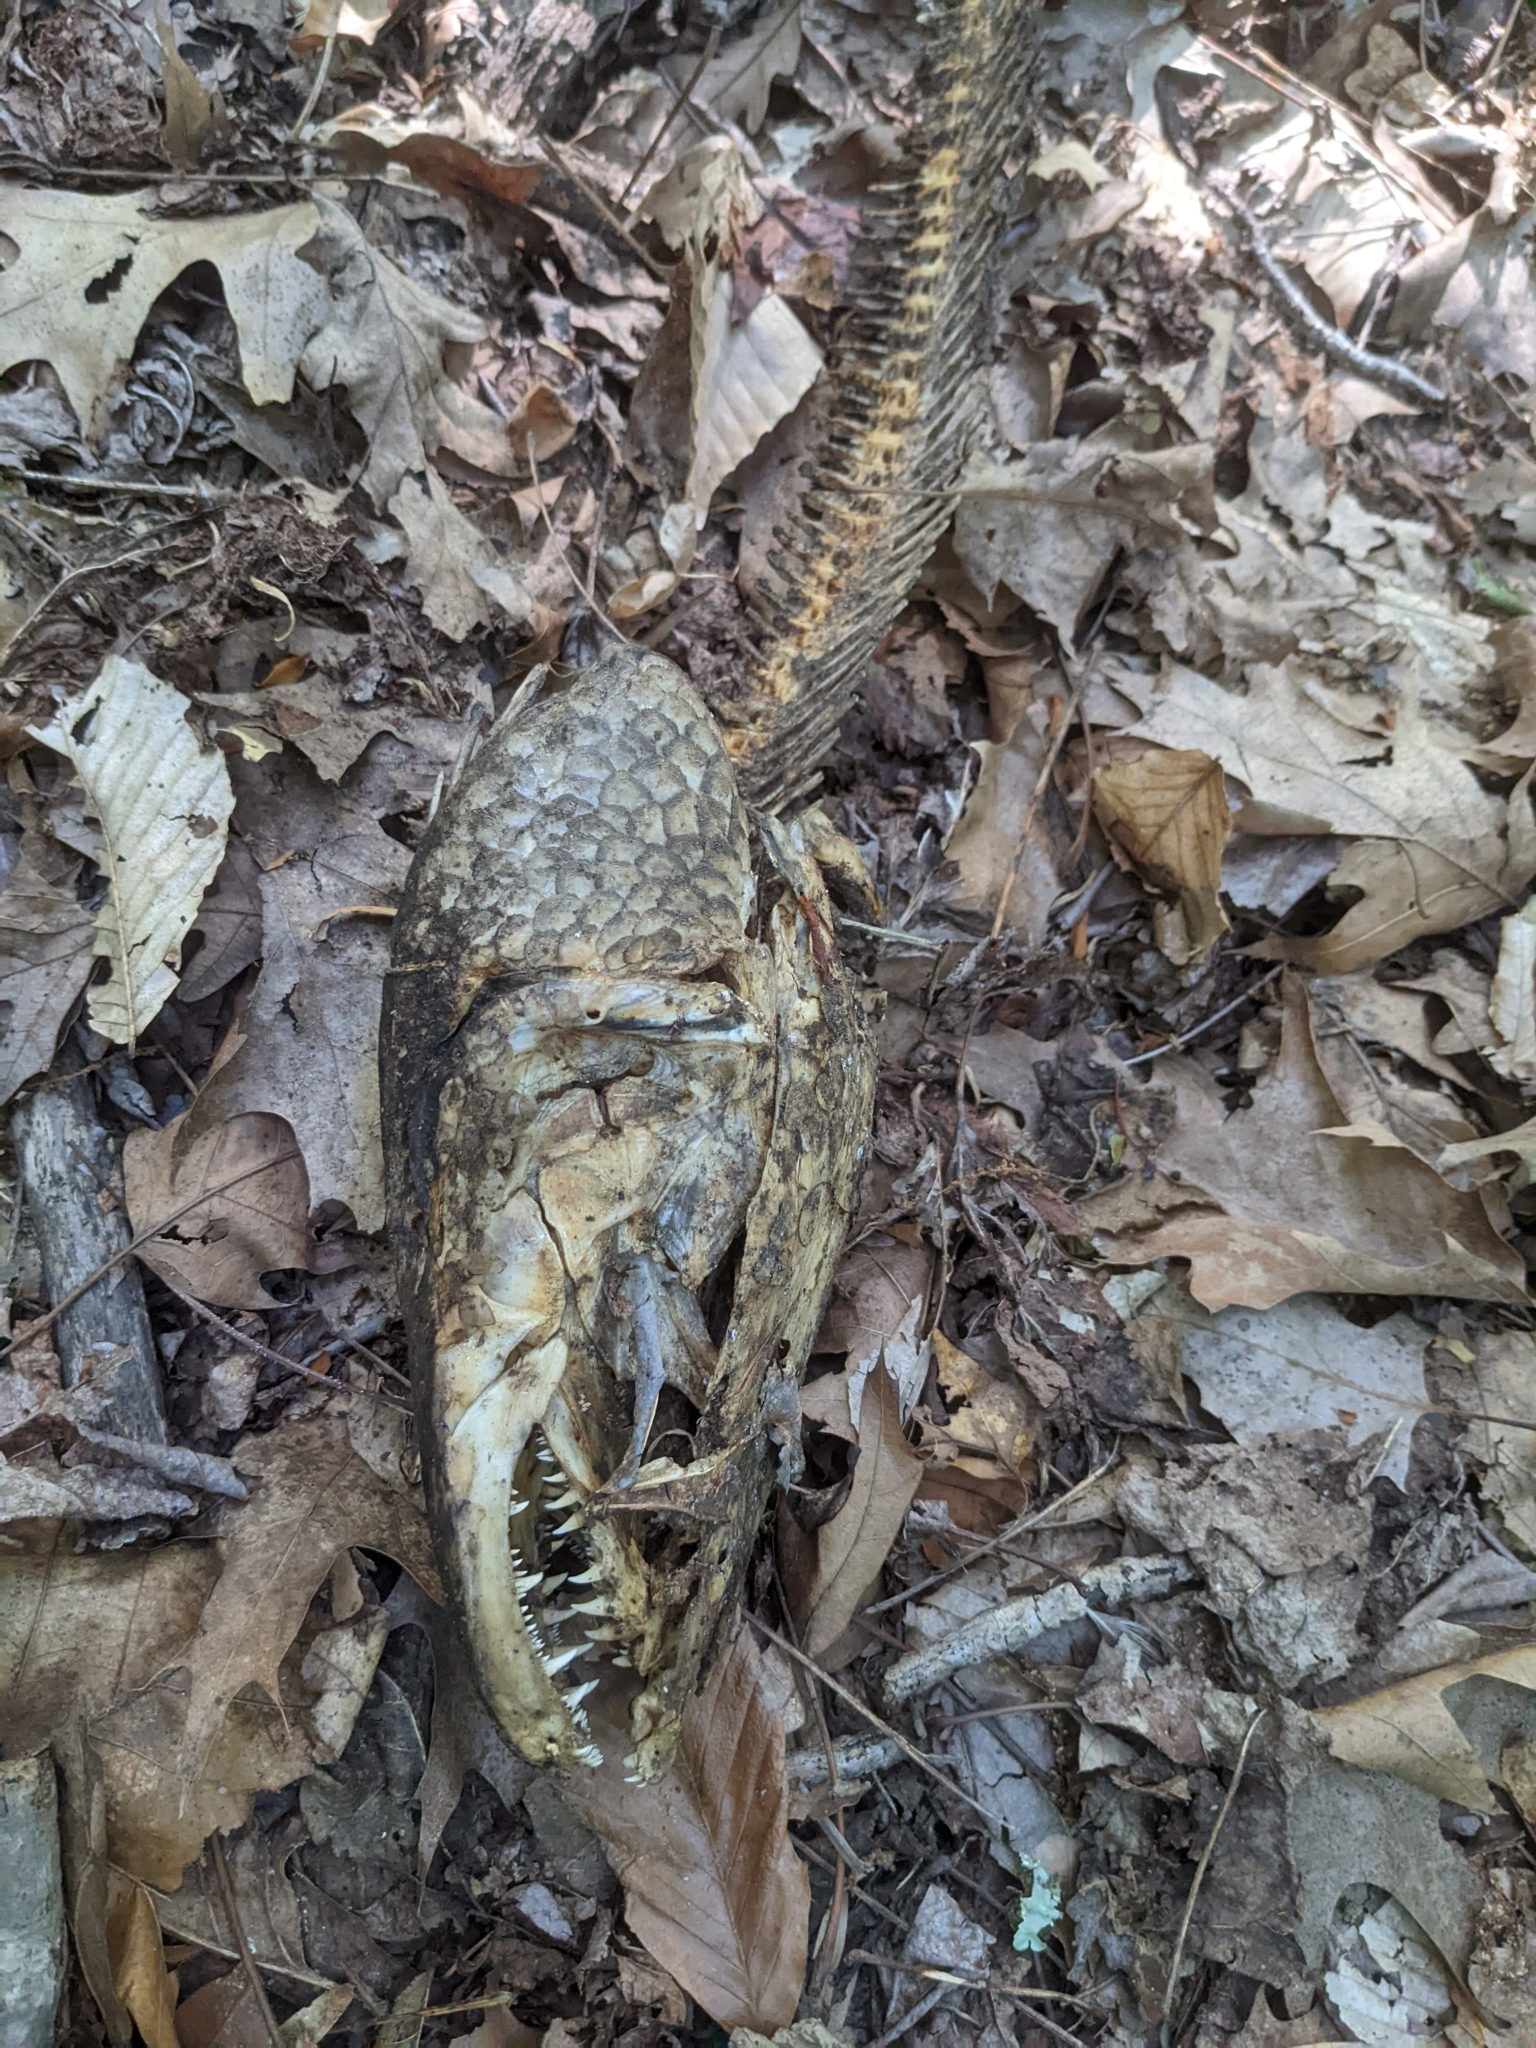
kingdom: Animalia
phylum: Chordata
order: Perciformes
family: Channidae
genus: Channa
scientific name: Channa argus
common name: Northern snakehead
